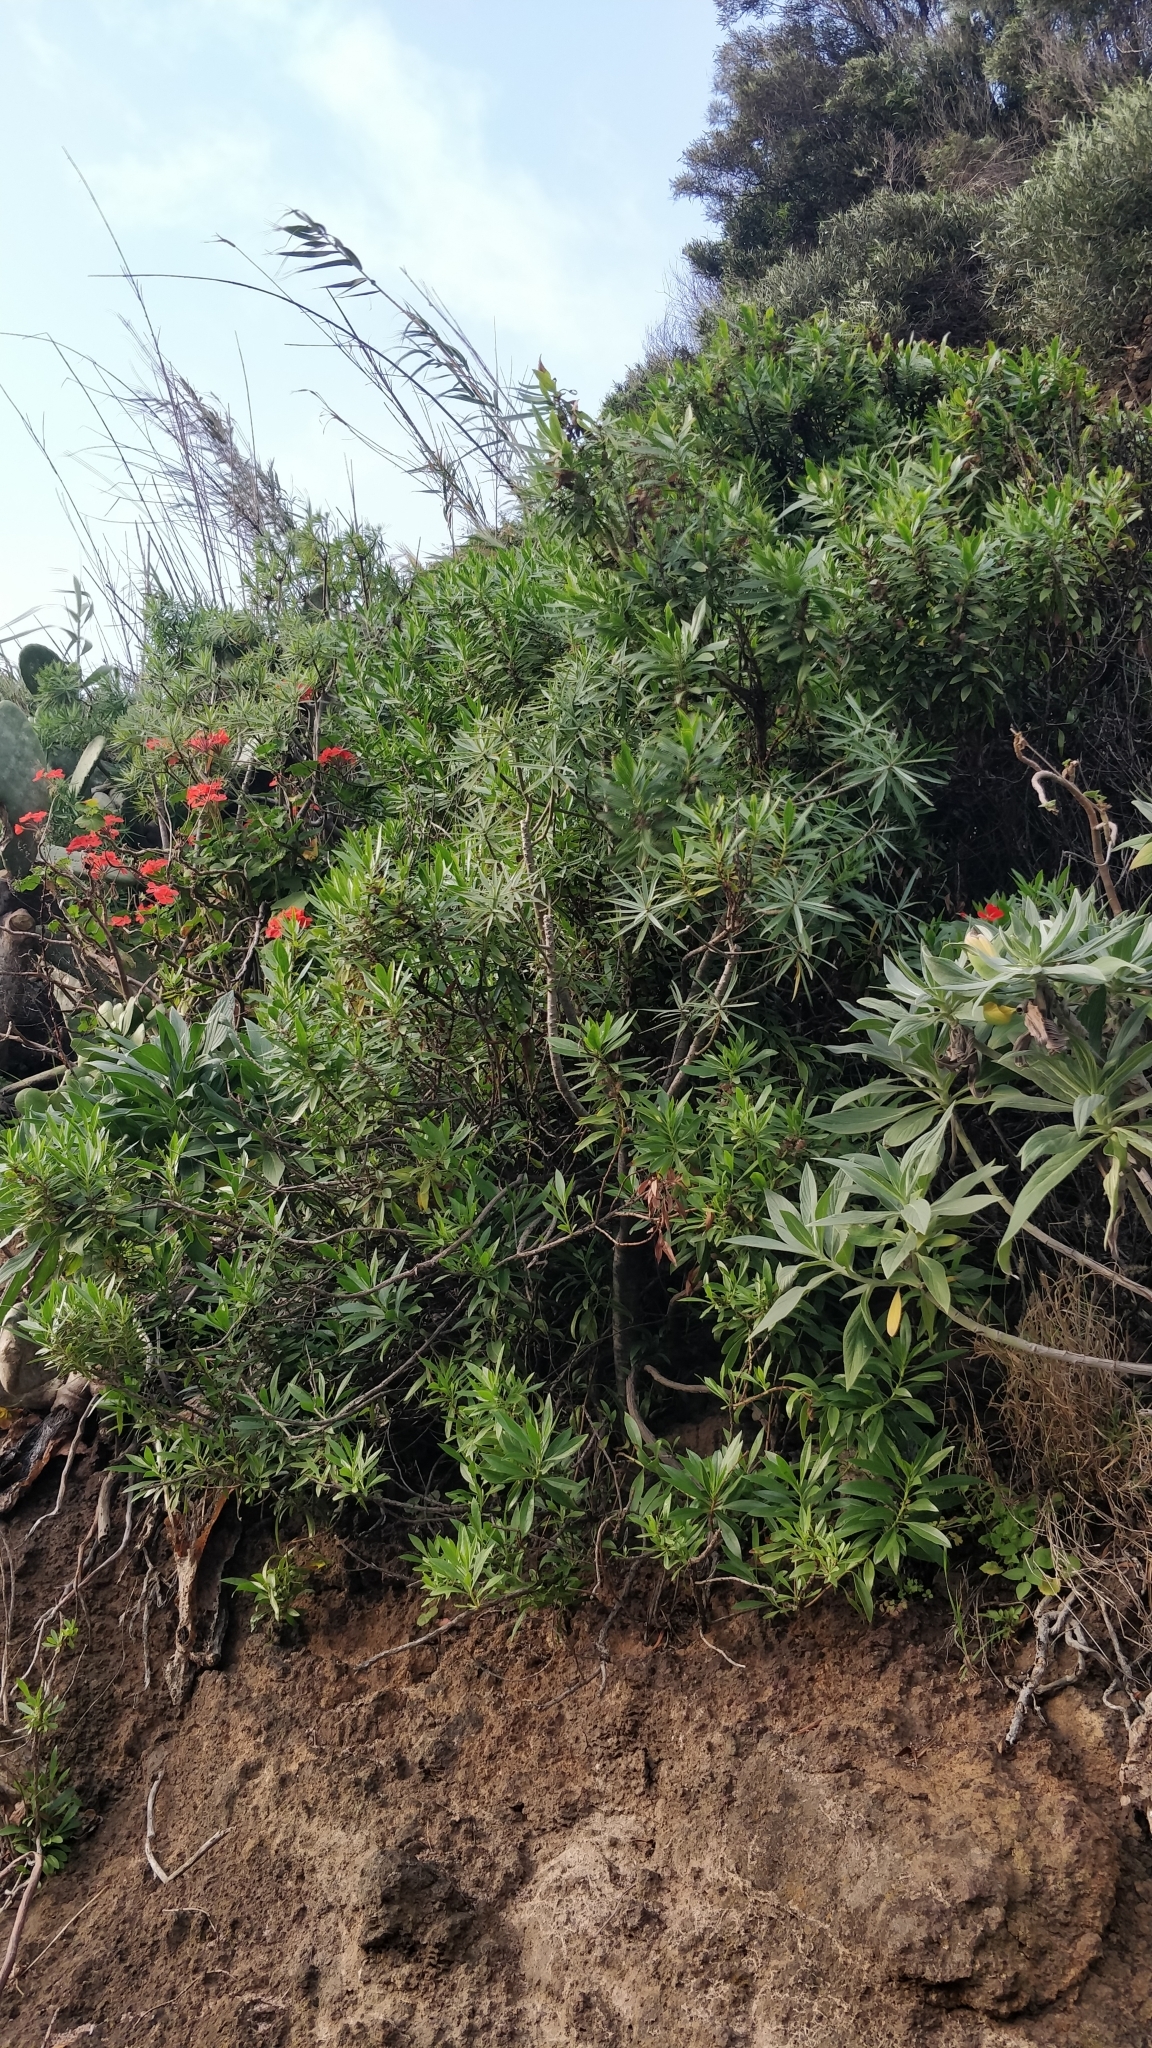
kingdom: Plantae
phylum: Tracheophyta
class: Magnoliopsida
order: Lamiales
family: Plantaginaceae
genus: Globularia
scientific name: Globularia salicina
